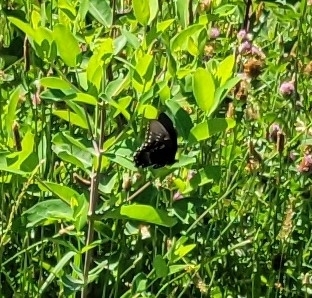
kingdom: Animalia
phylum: Arthropoda
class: Insecta
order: Lepidoptera
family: Papilionidae
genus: Papilio
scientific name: Papilio troilus
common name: Spicebush swallowtail
